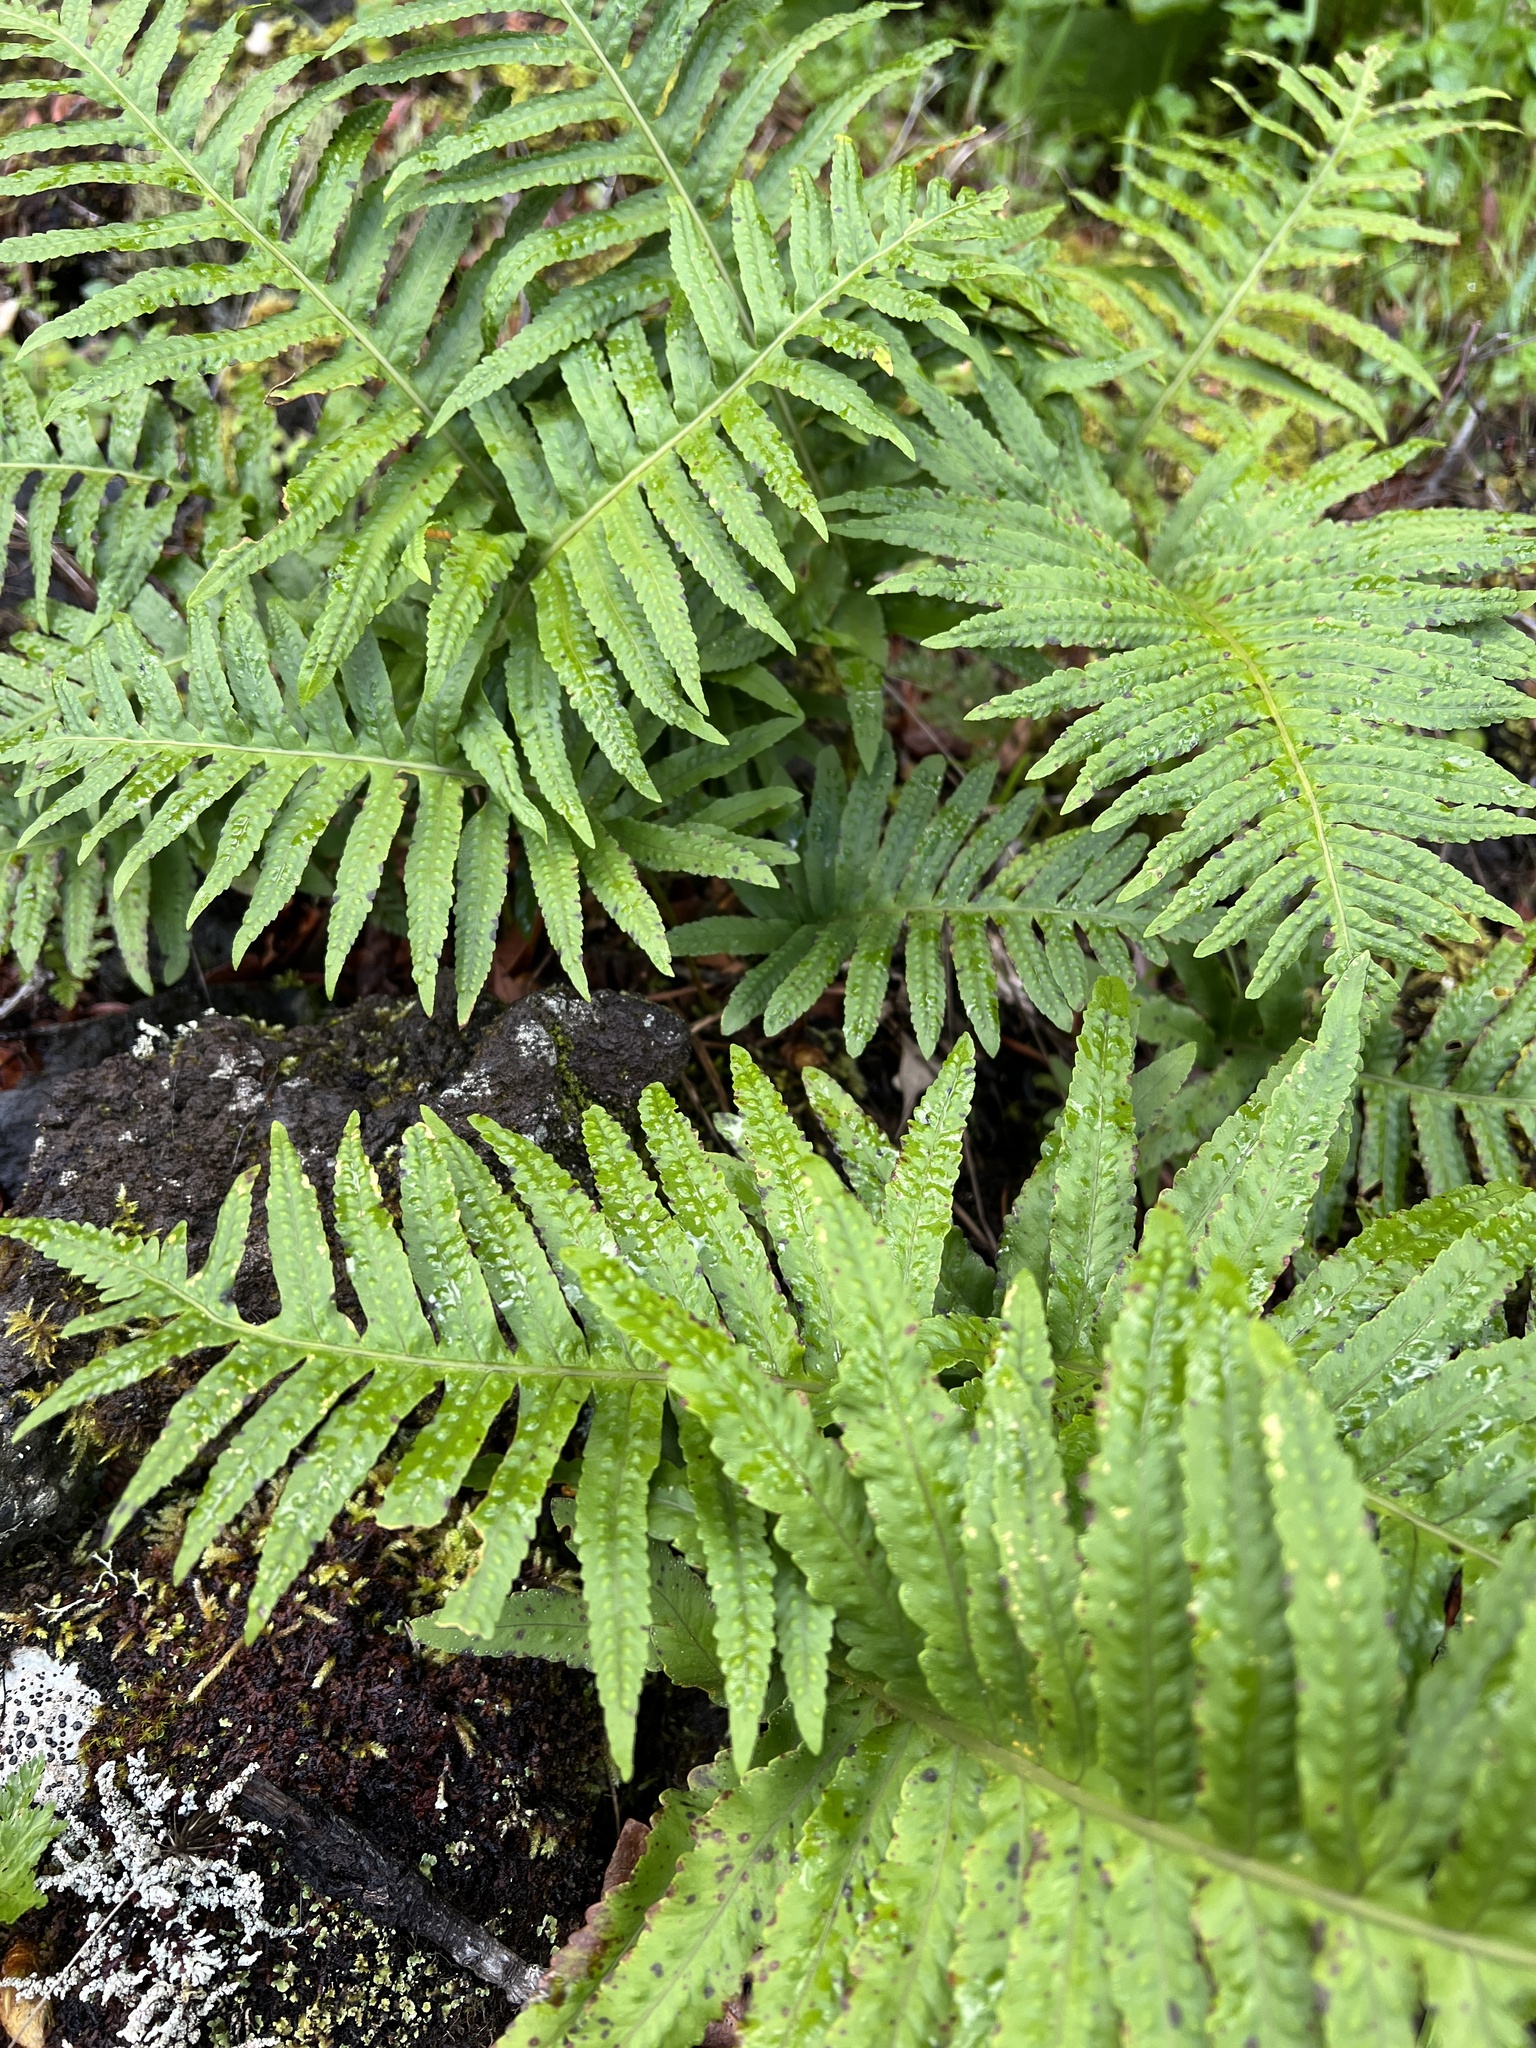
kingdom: Plantae
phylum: Tracheophyta
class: Polypodiopsida
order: Polypodiales
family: Polypodiaceae
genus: Polypodium
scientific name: Polypodium macaronesicum
